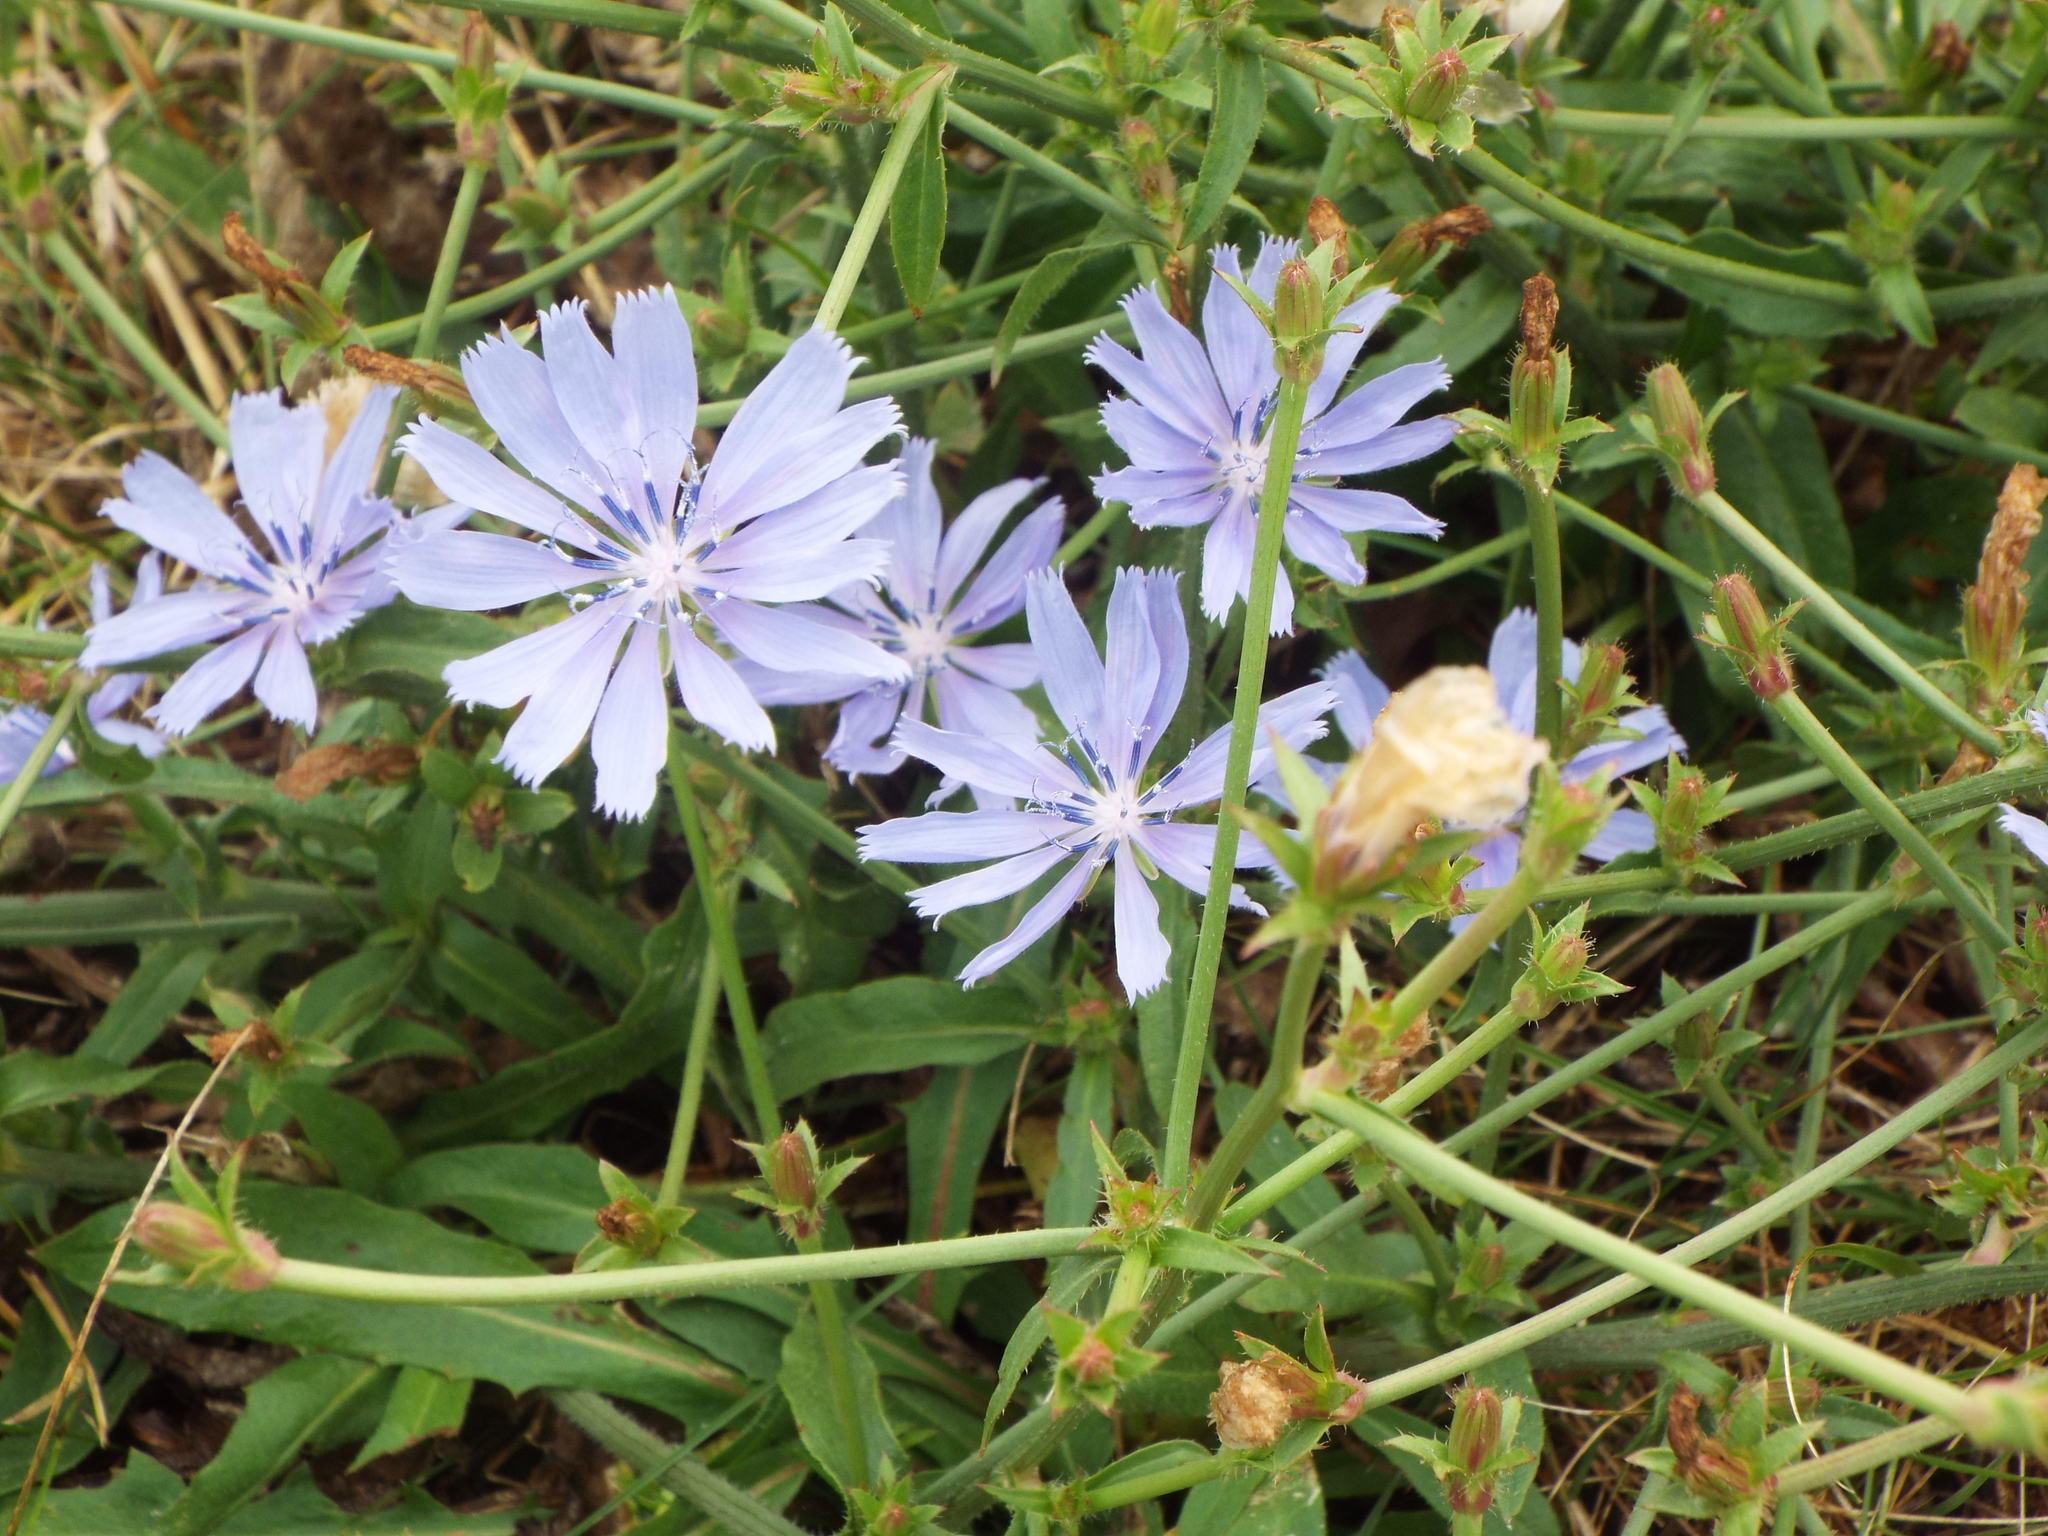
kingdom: Plantae
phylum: Tracheophyta
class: Magnoliopsida
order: Asterales
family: Asteraceae
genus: Cichorium
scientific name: Cichorium intybus
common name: Chicory
